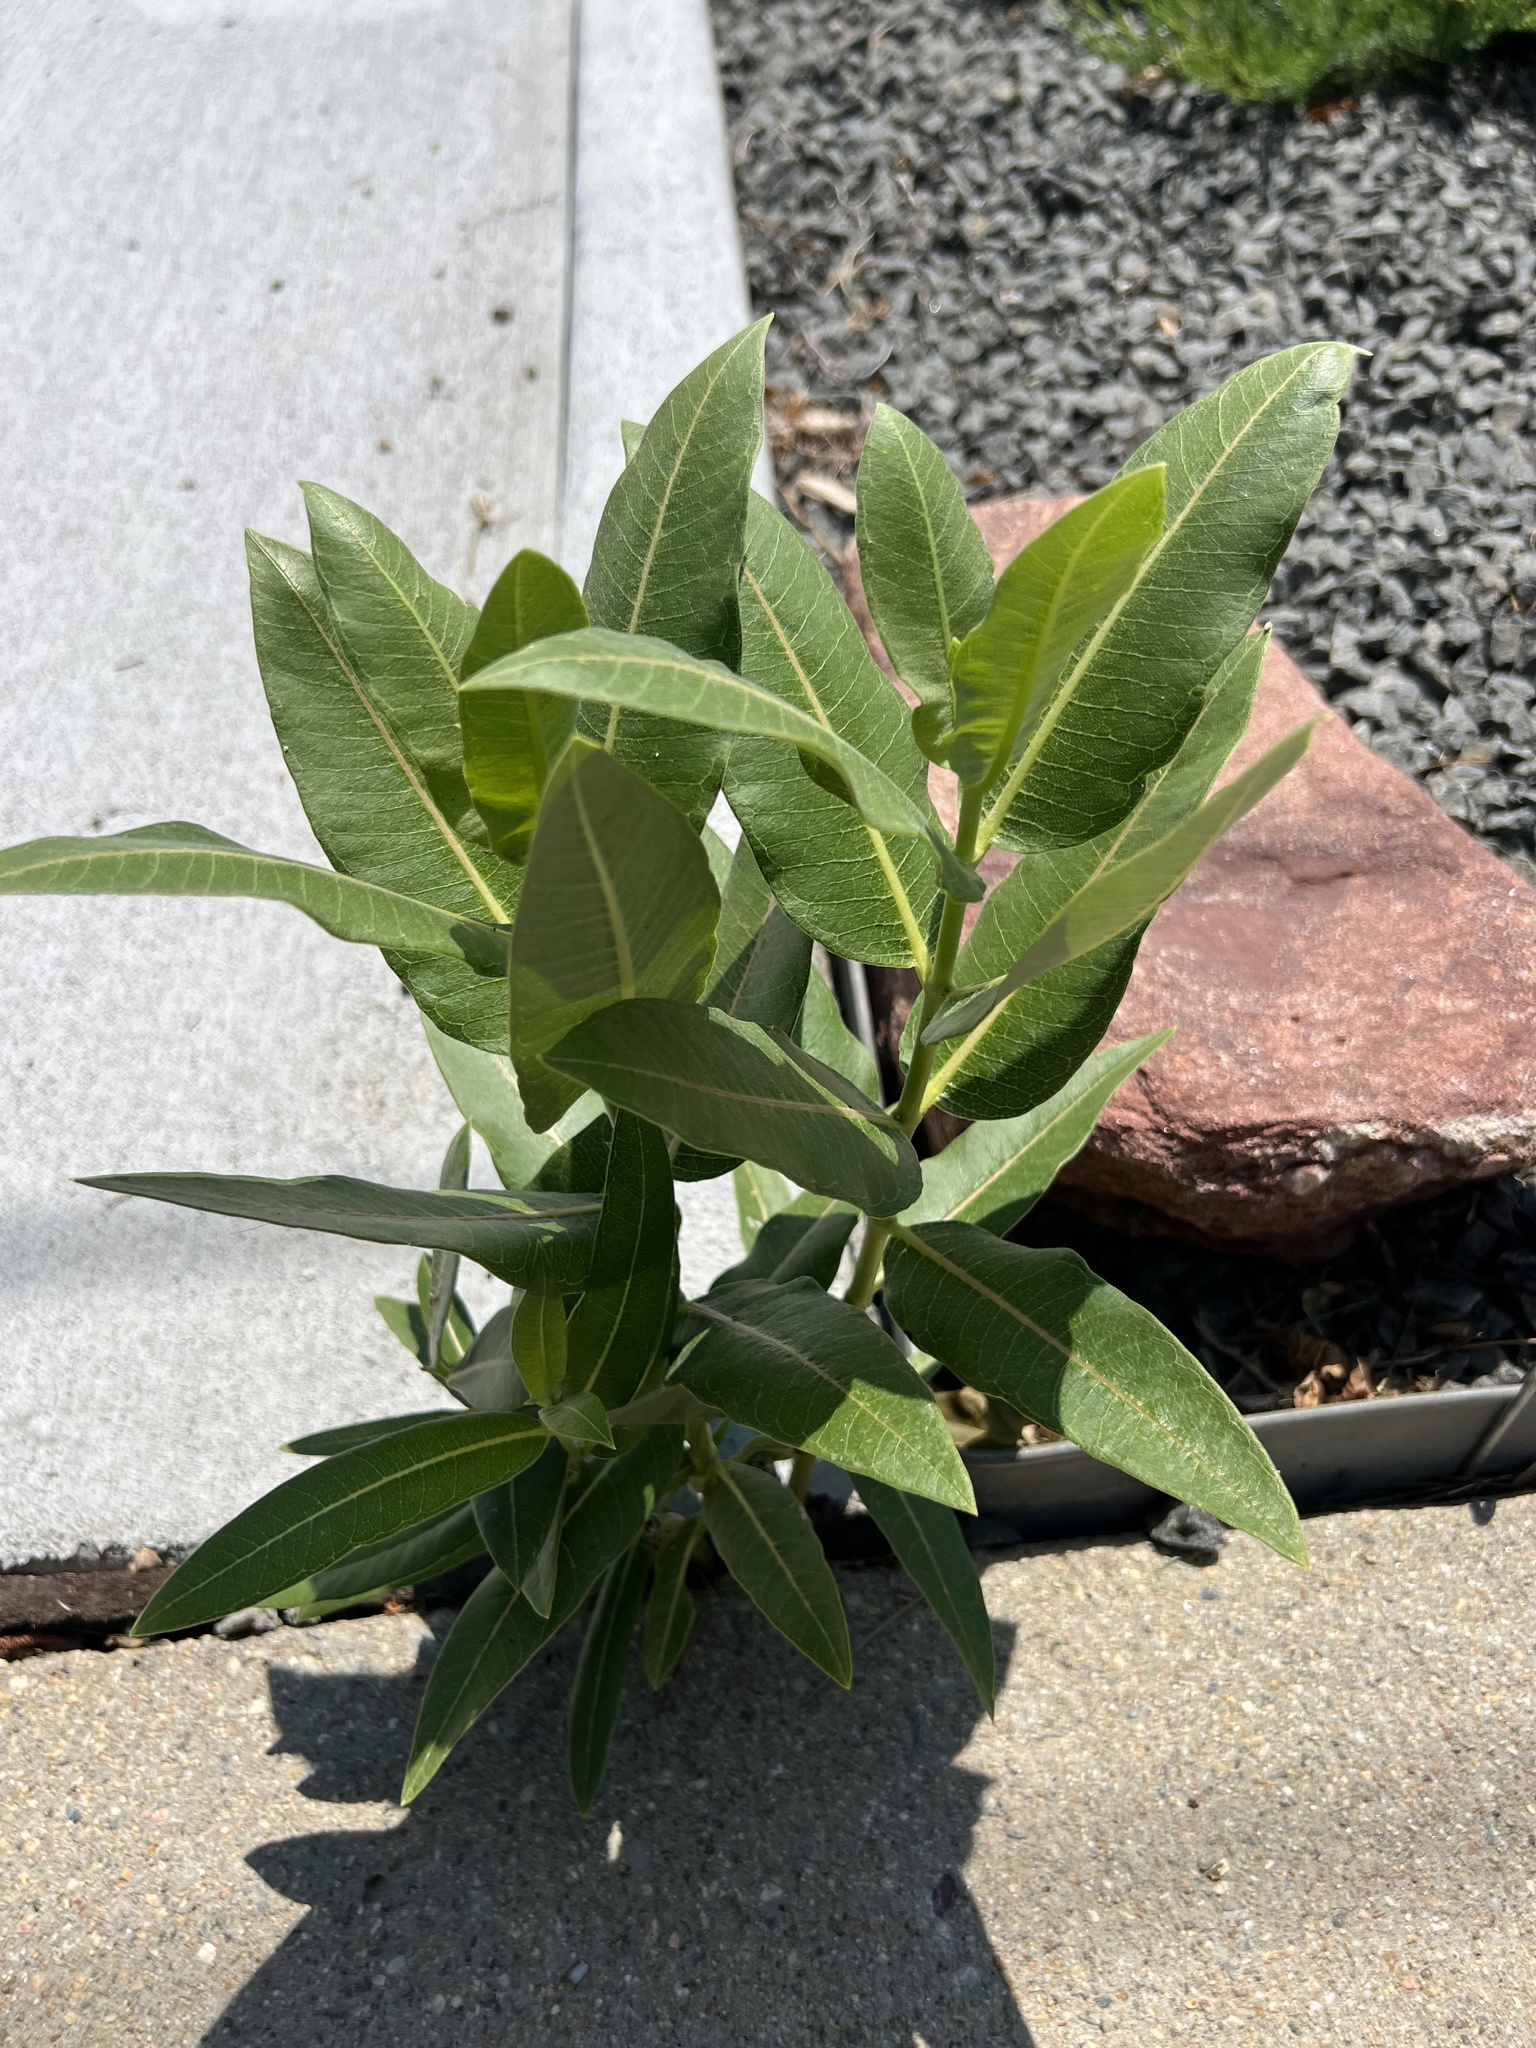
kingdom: Plantae
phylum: Tracheophyta
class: Magnoliopsida
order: Gentianales
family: Apocynaceae
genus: Asclepias
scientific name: Asclepias speciosa
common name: Showy milkweed
